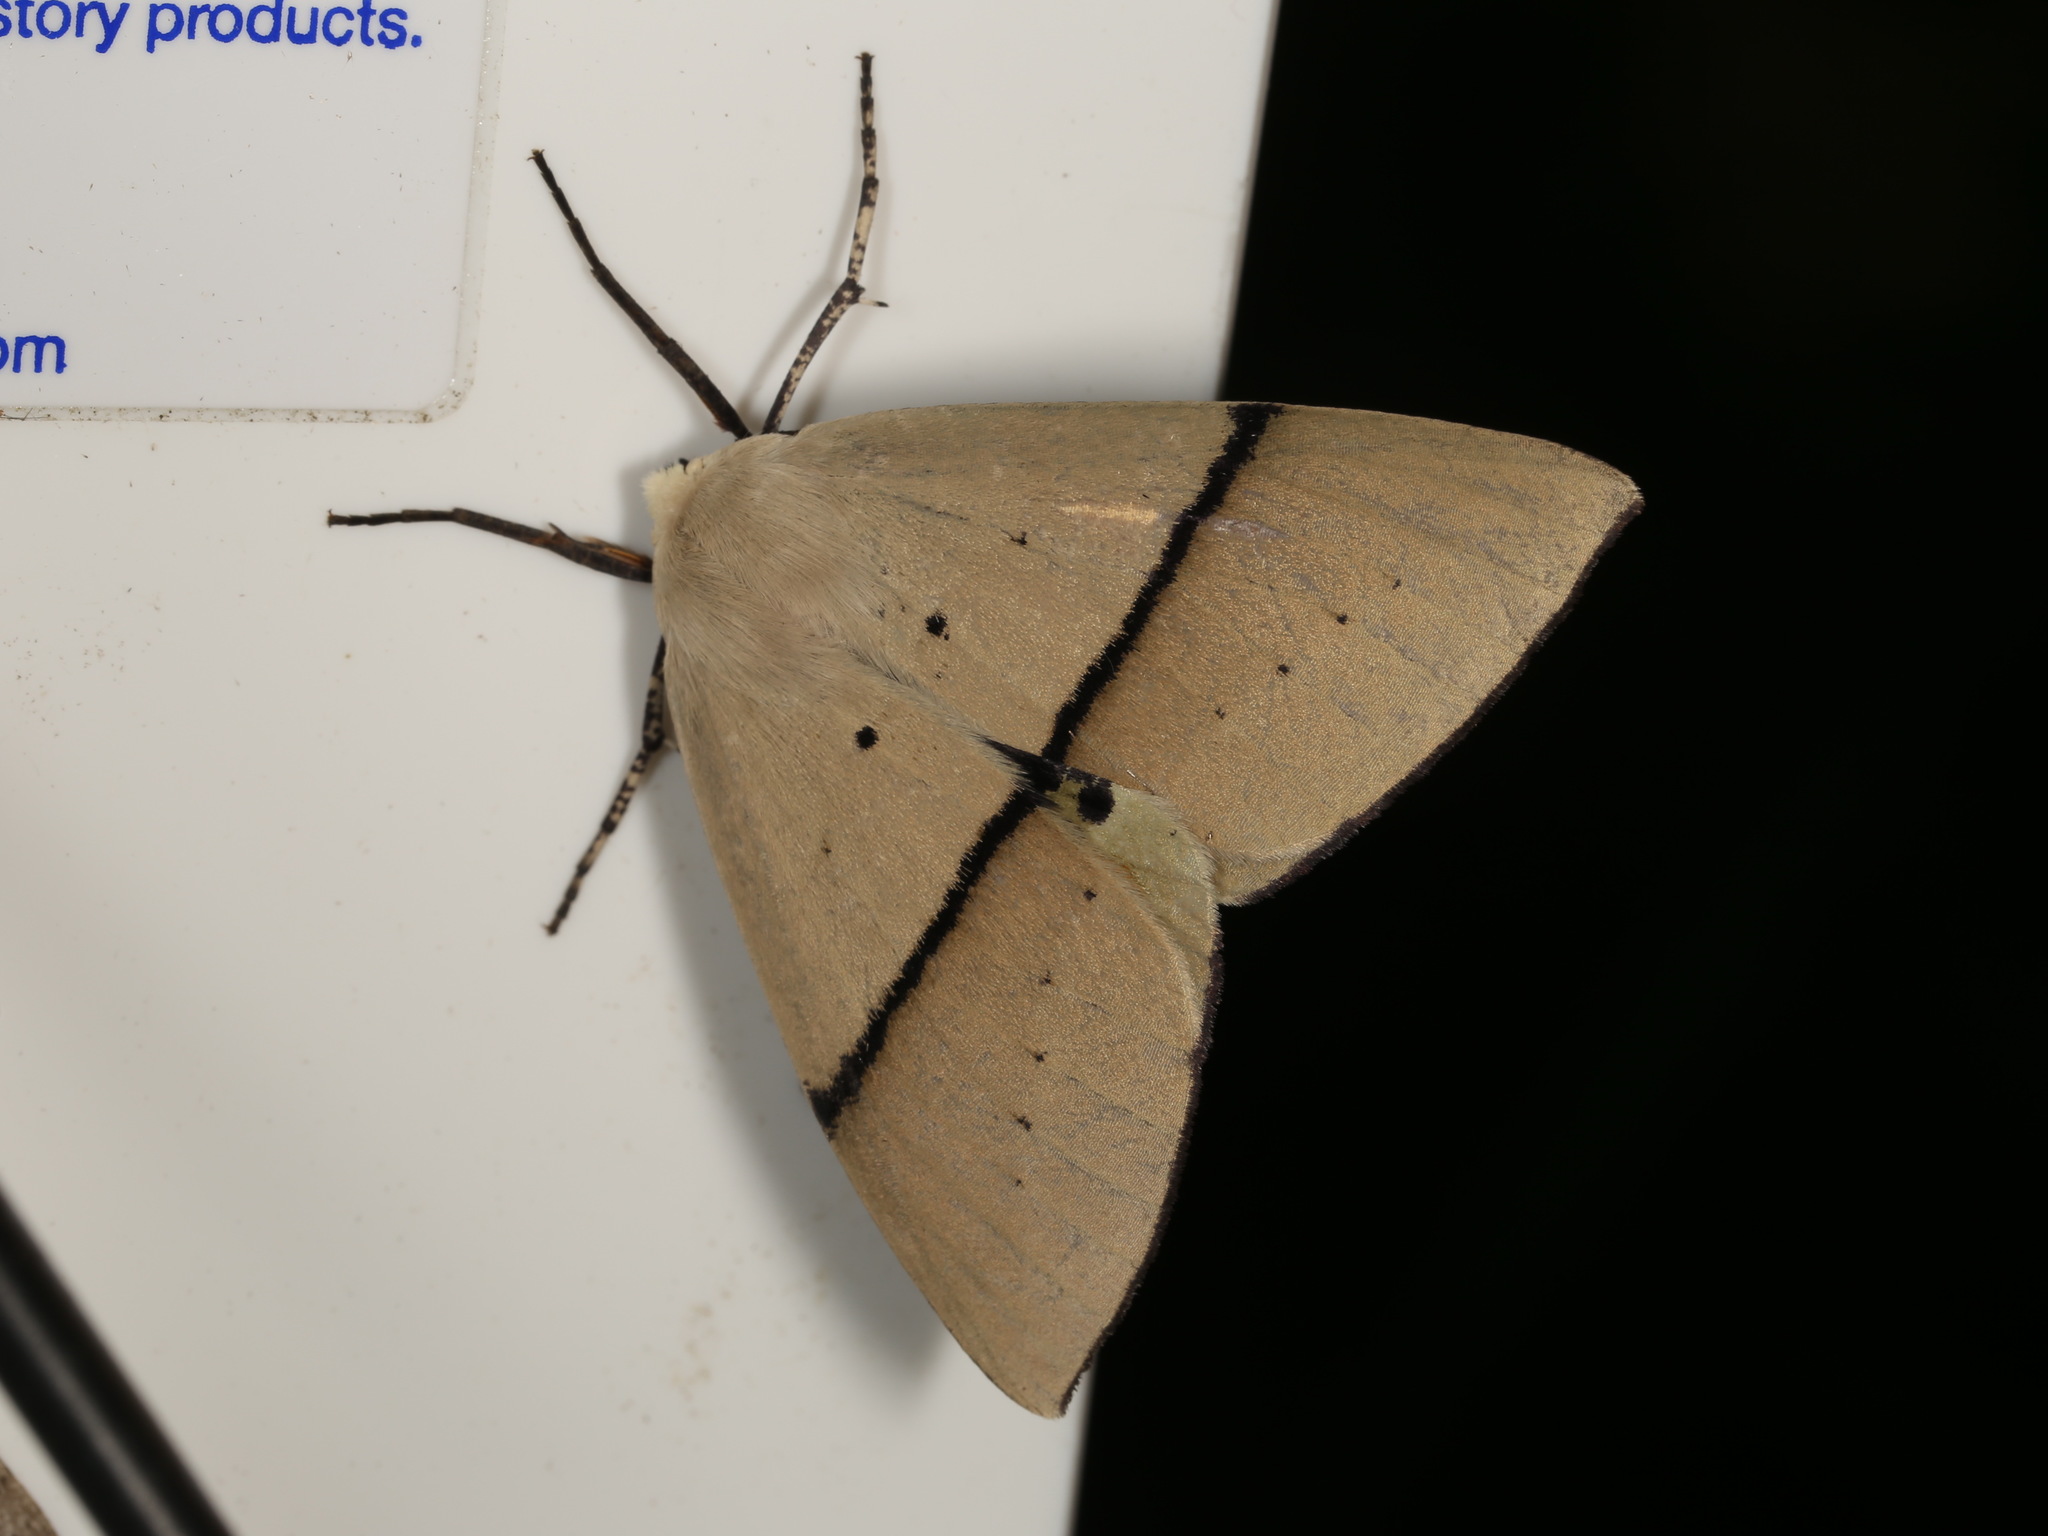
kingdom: Animalia
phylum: Arthropoda
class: Insecta
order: Lepidoptera
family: Geometridae
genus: Gastrophora
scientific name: Gastrophora henricaria
